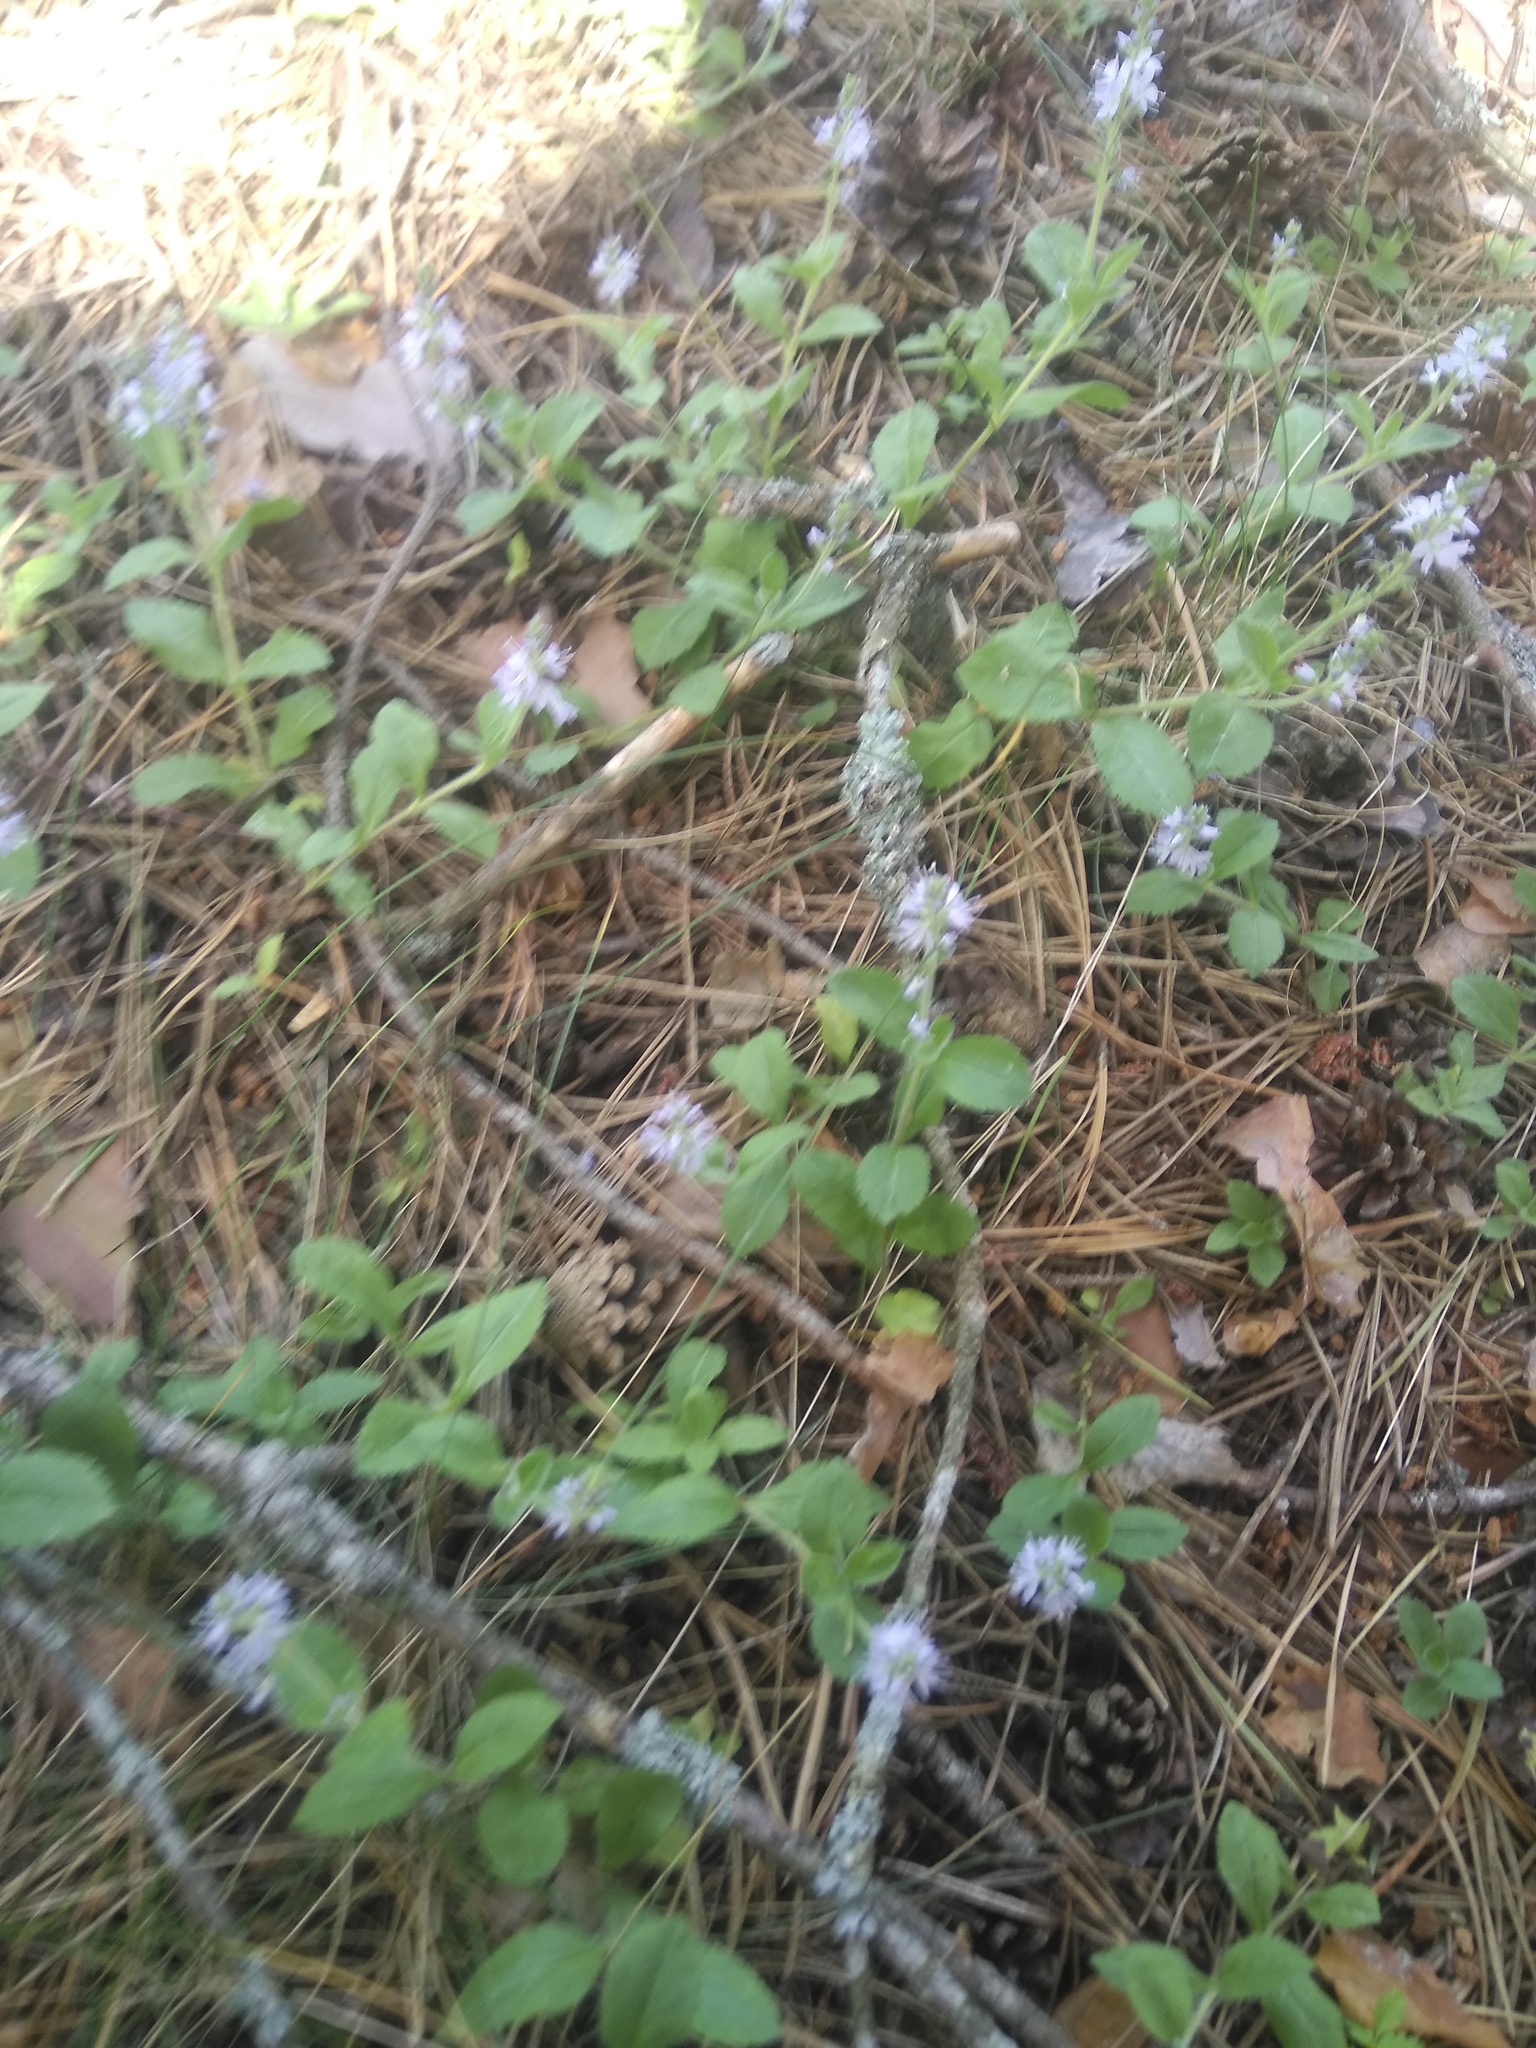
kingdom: Plantae
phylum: Tracheophyta
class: Magnoliopsida
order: Lamiales
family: Plantaginaceae
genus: Veronica
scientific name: Veronica officinalis
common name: Common speedwell
